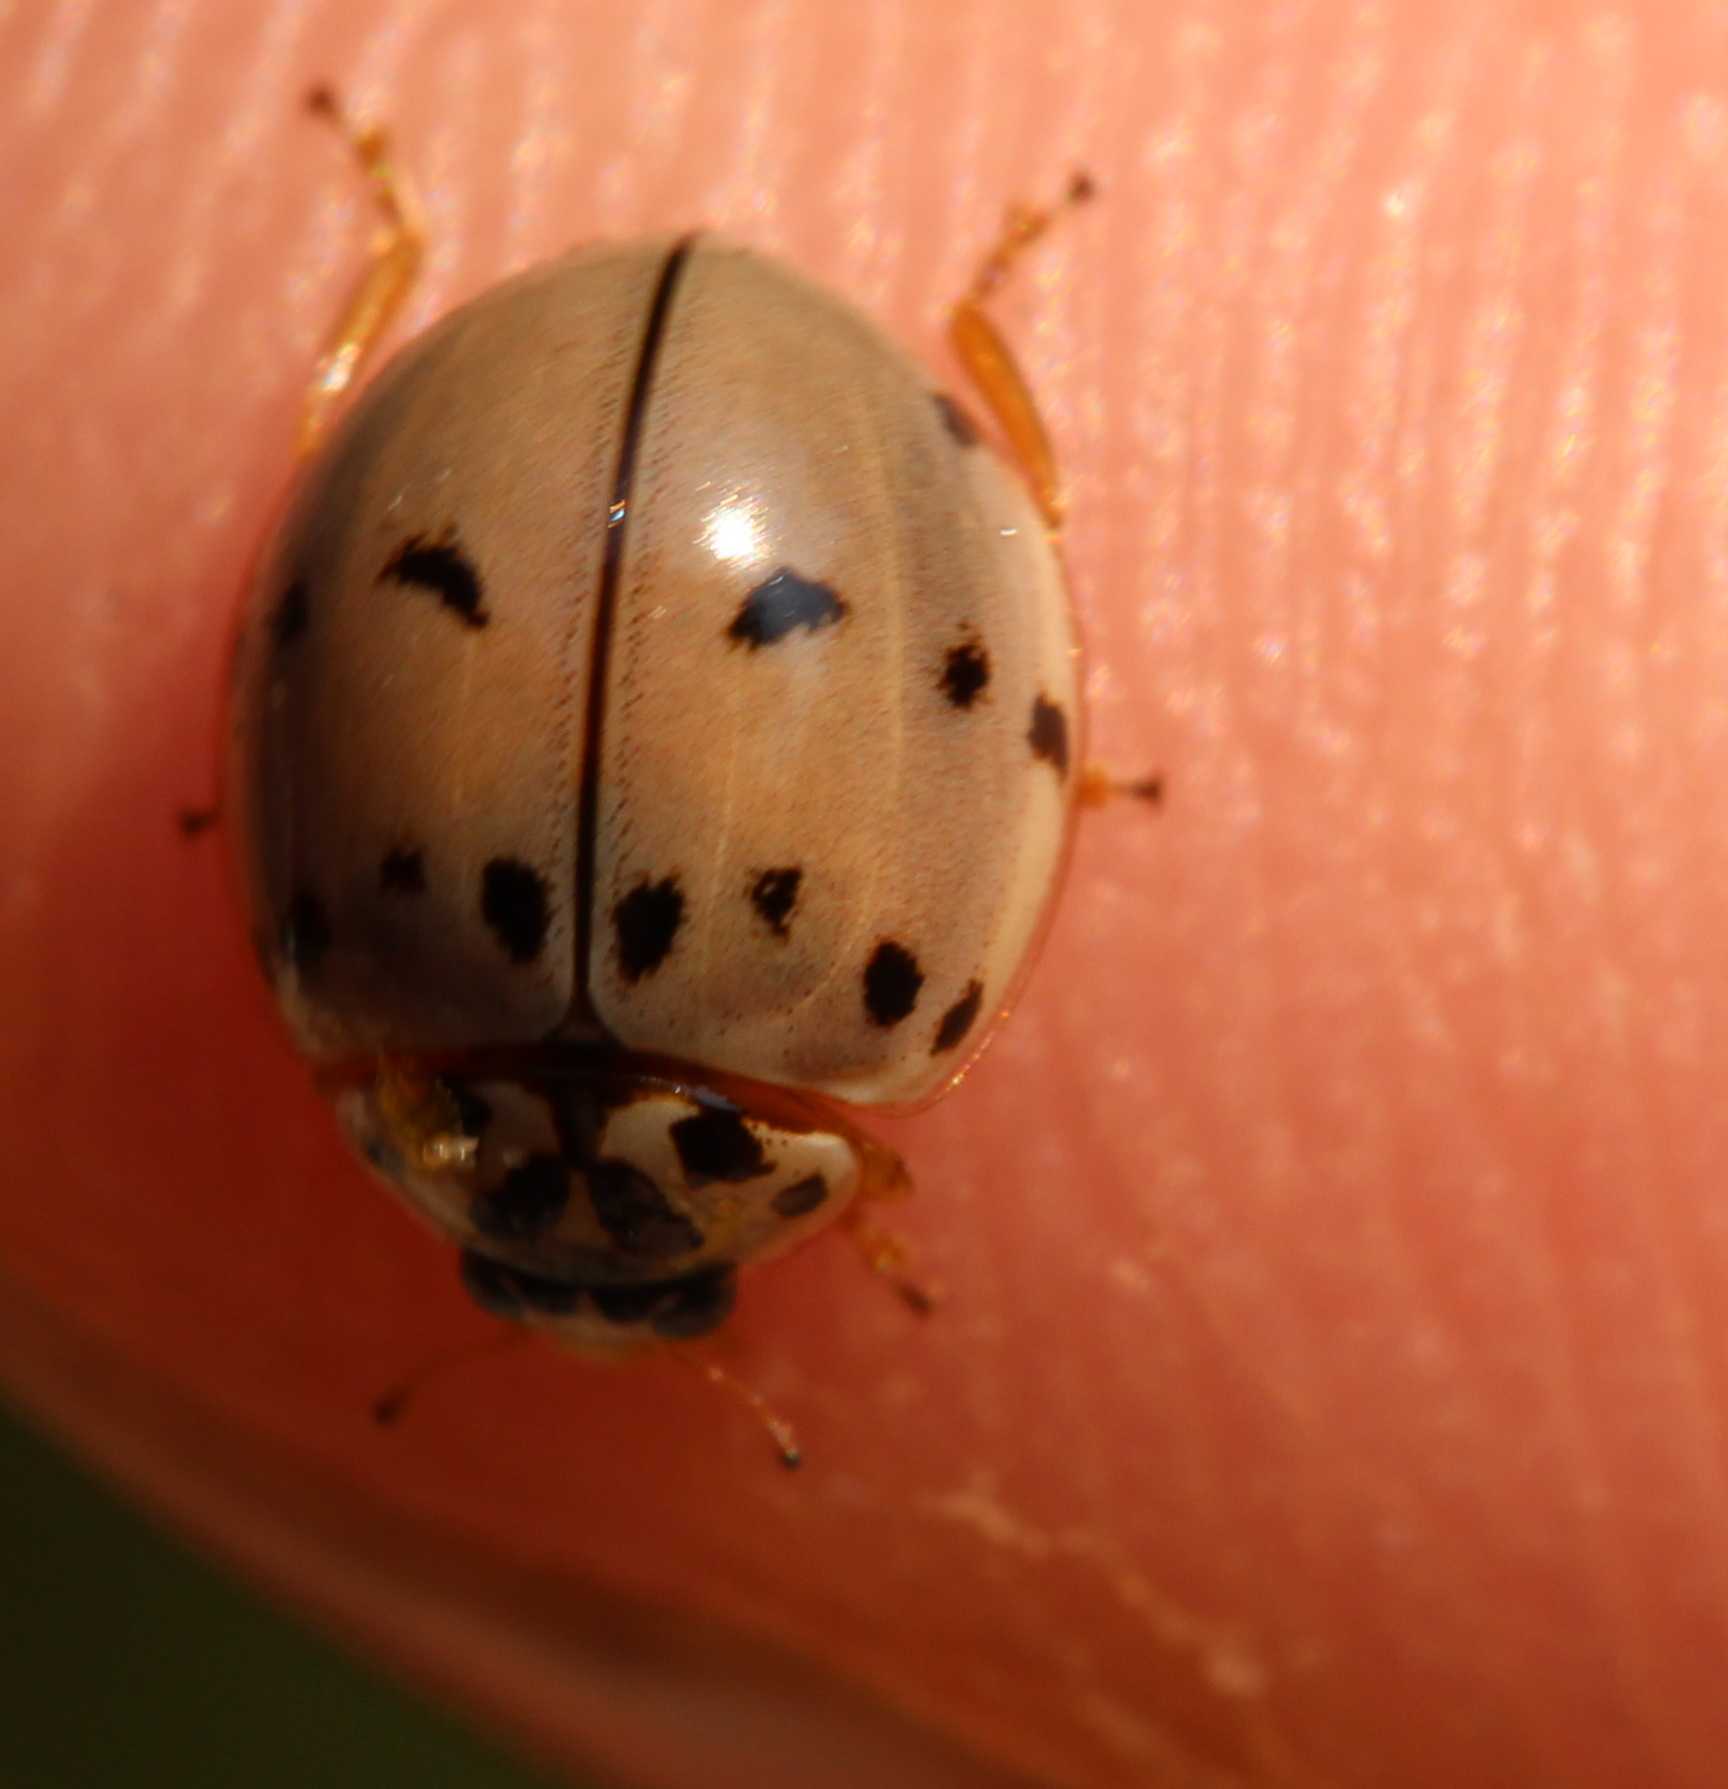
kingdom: Animalia
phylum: Arthropoda
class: Insecta
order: Coleoptera
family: Coccinellidae
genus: Olla
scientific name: Olla v-nigrum
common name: Ashy gray lady beetle
